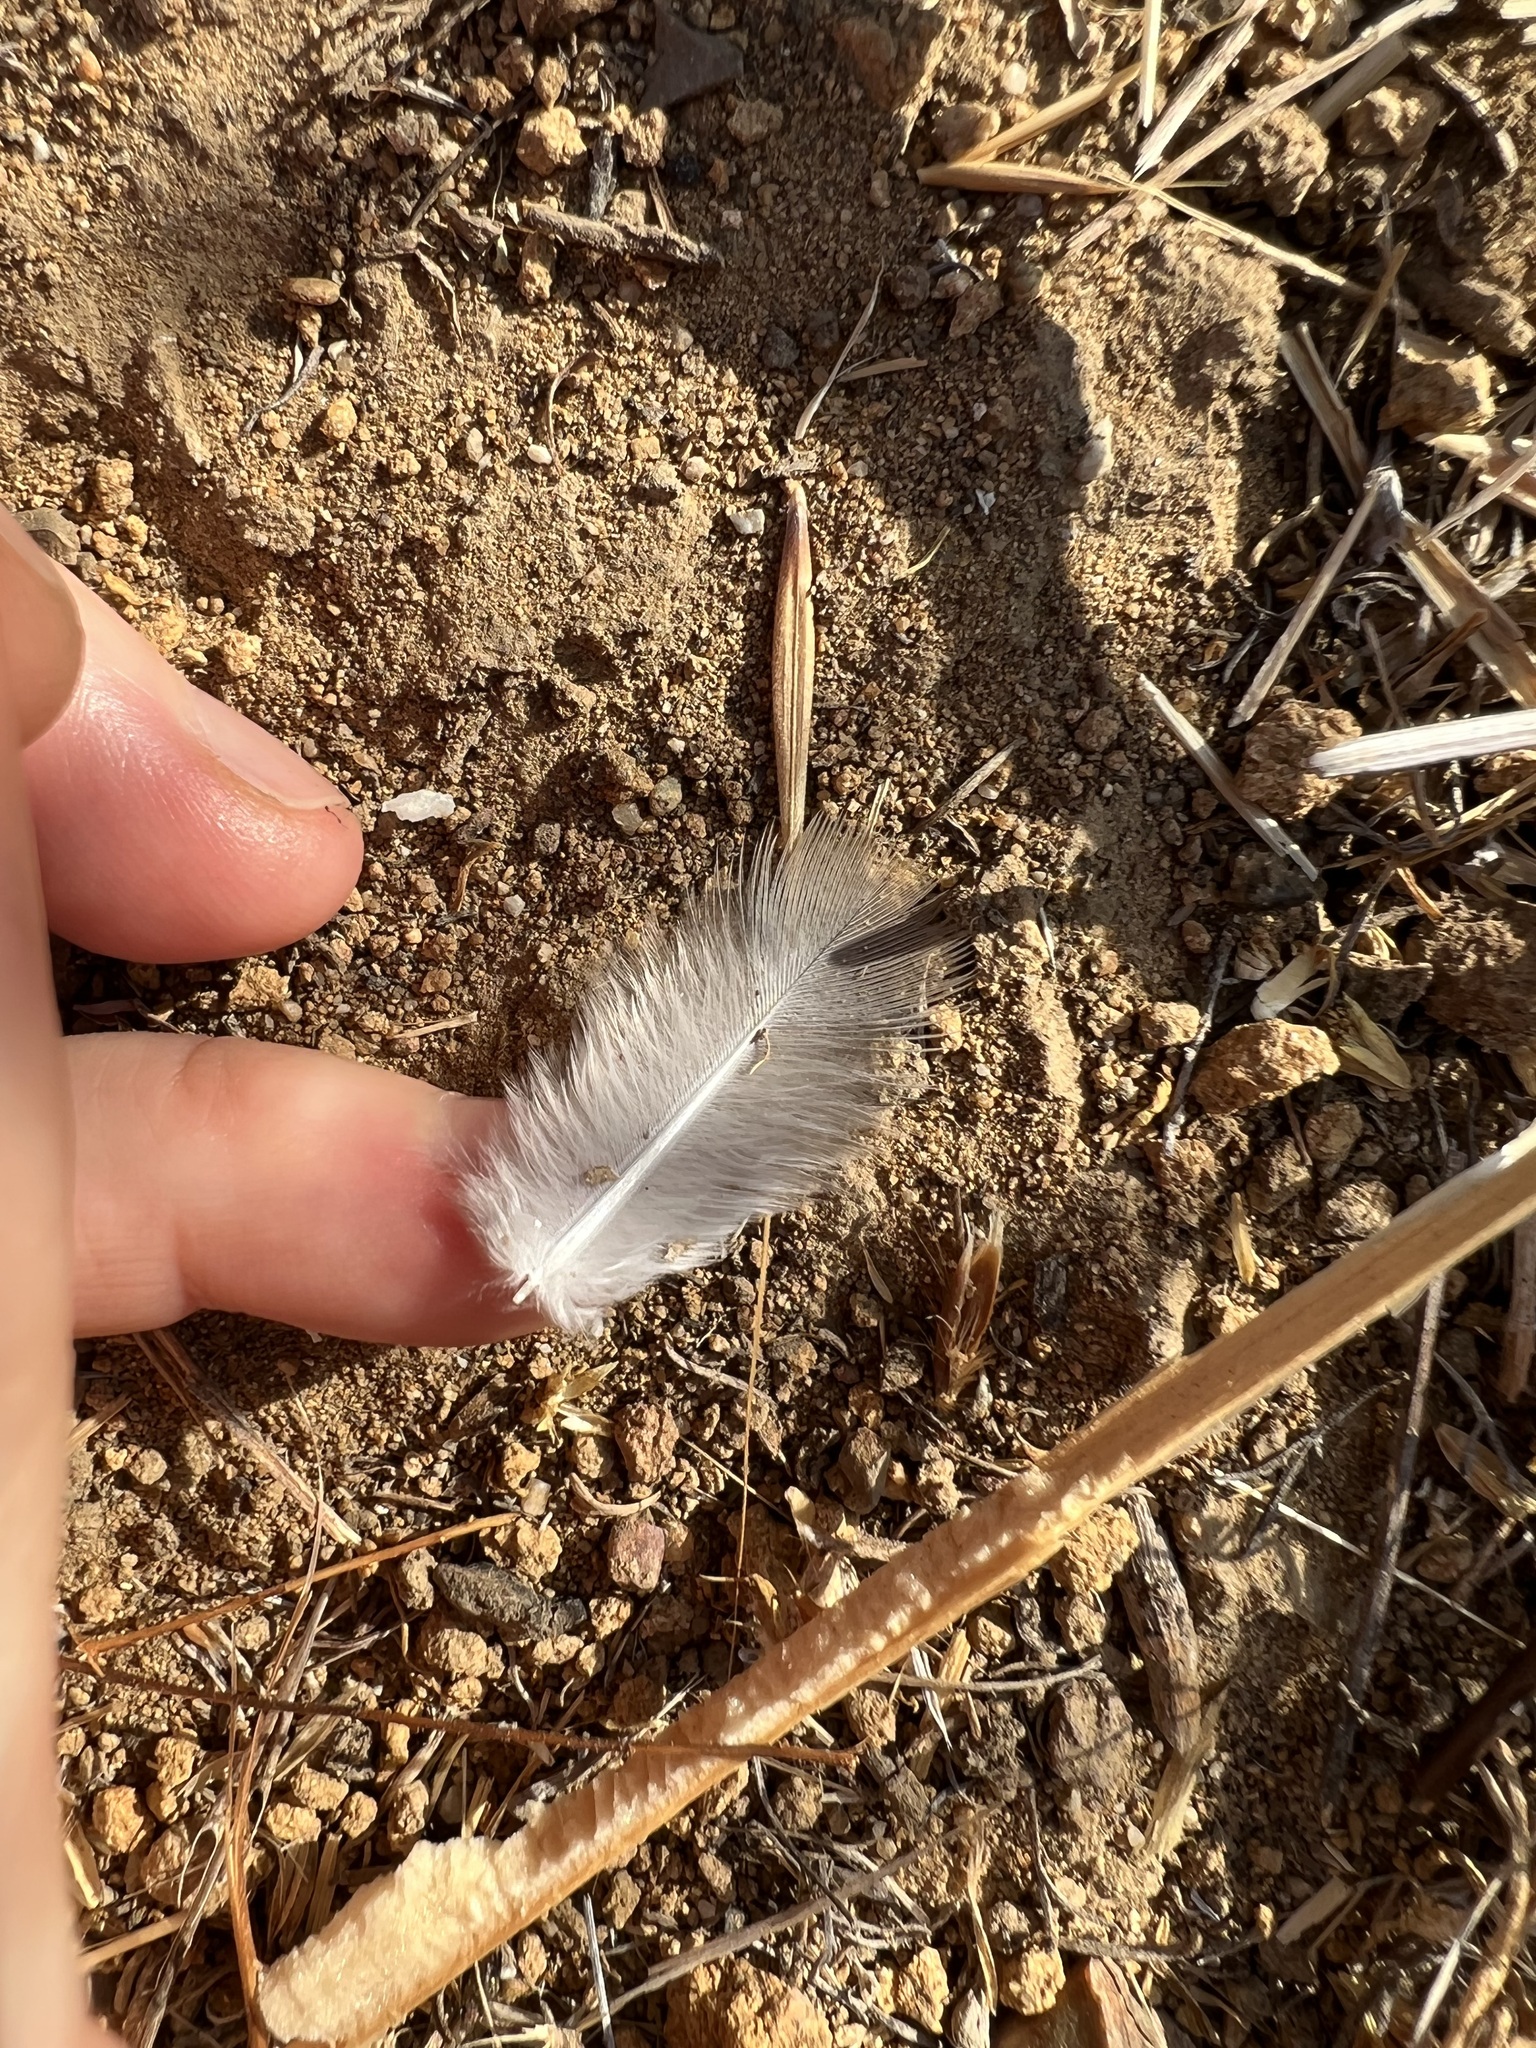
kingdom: Animalia
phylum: Chordata
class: Aves
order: Columbiformes
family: Columbidae
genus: Zenaida
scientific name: Zenaida macroura
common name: Mourning dove
